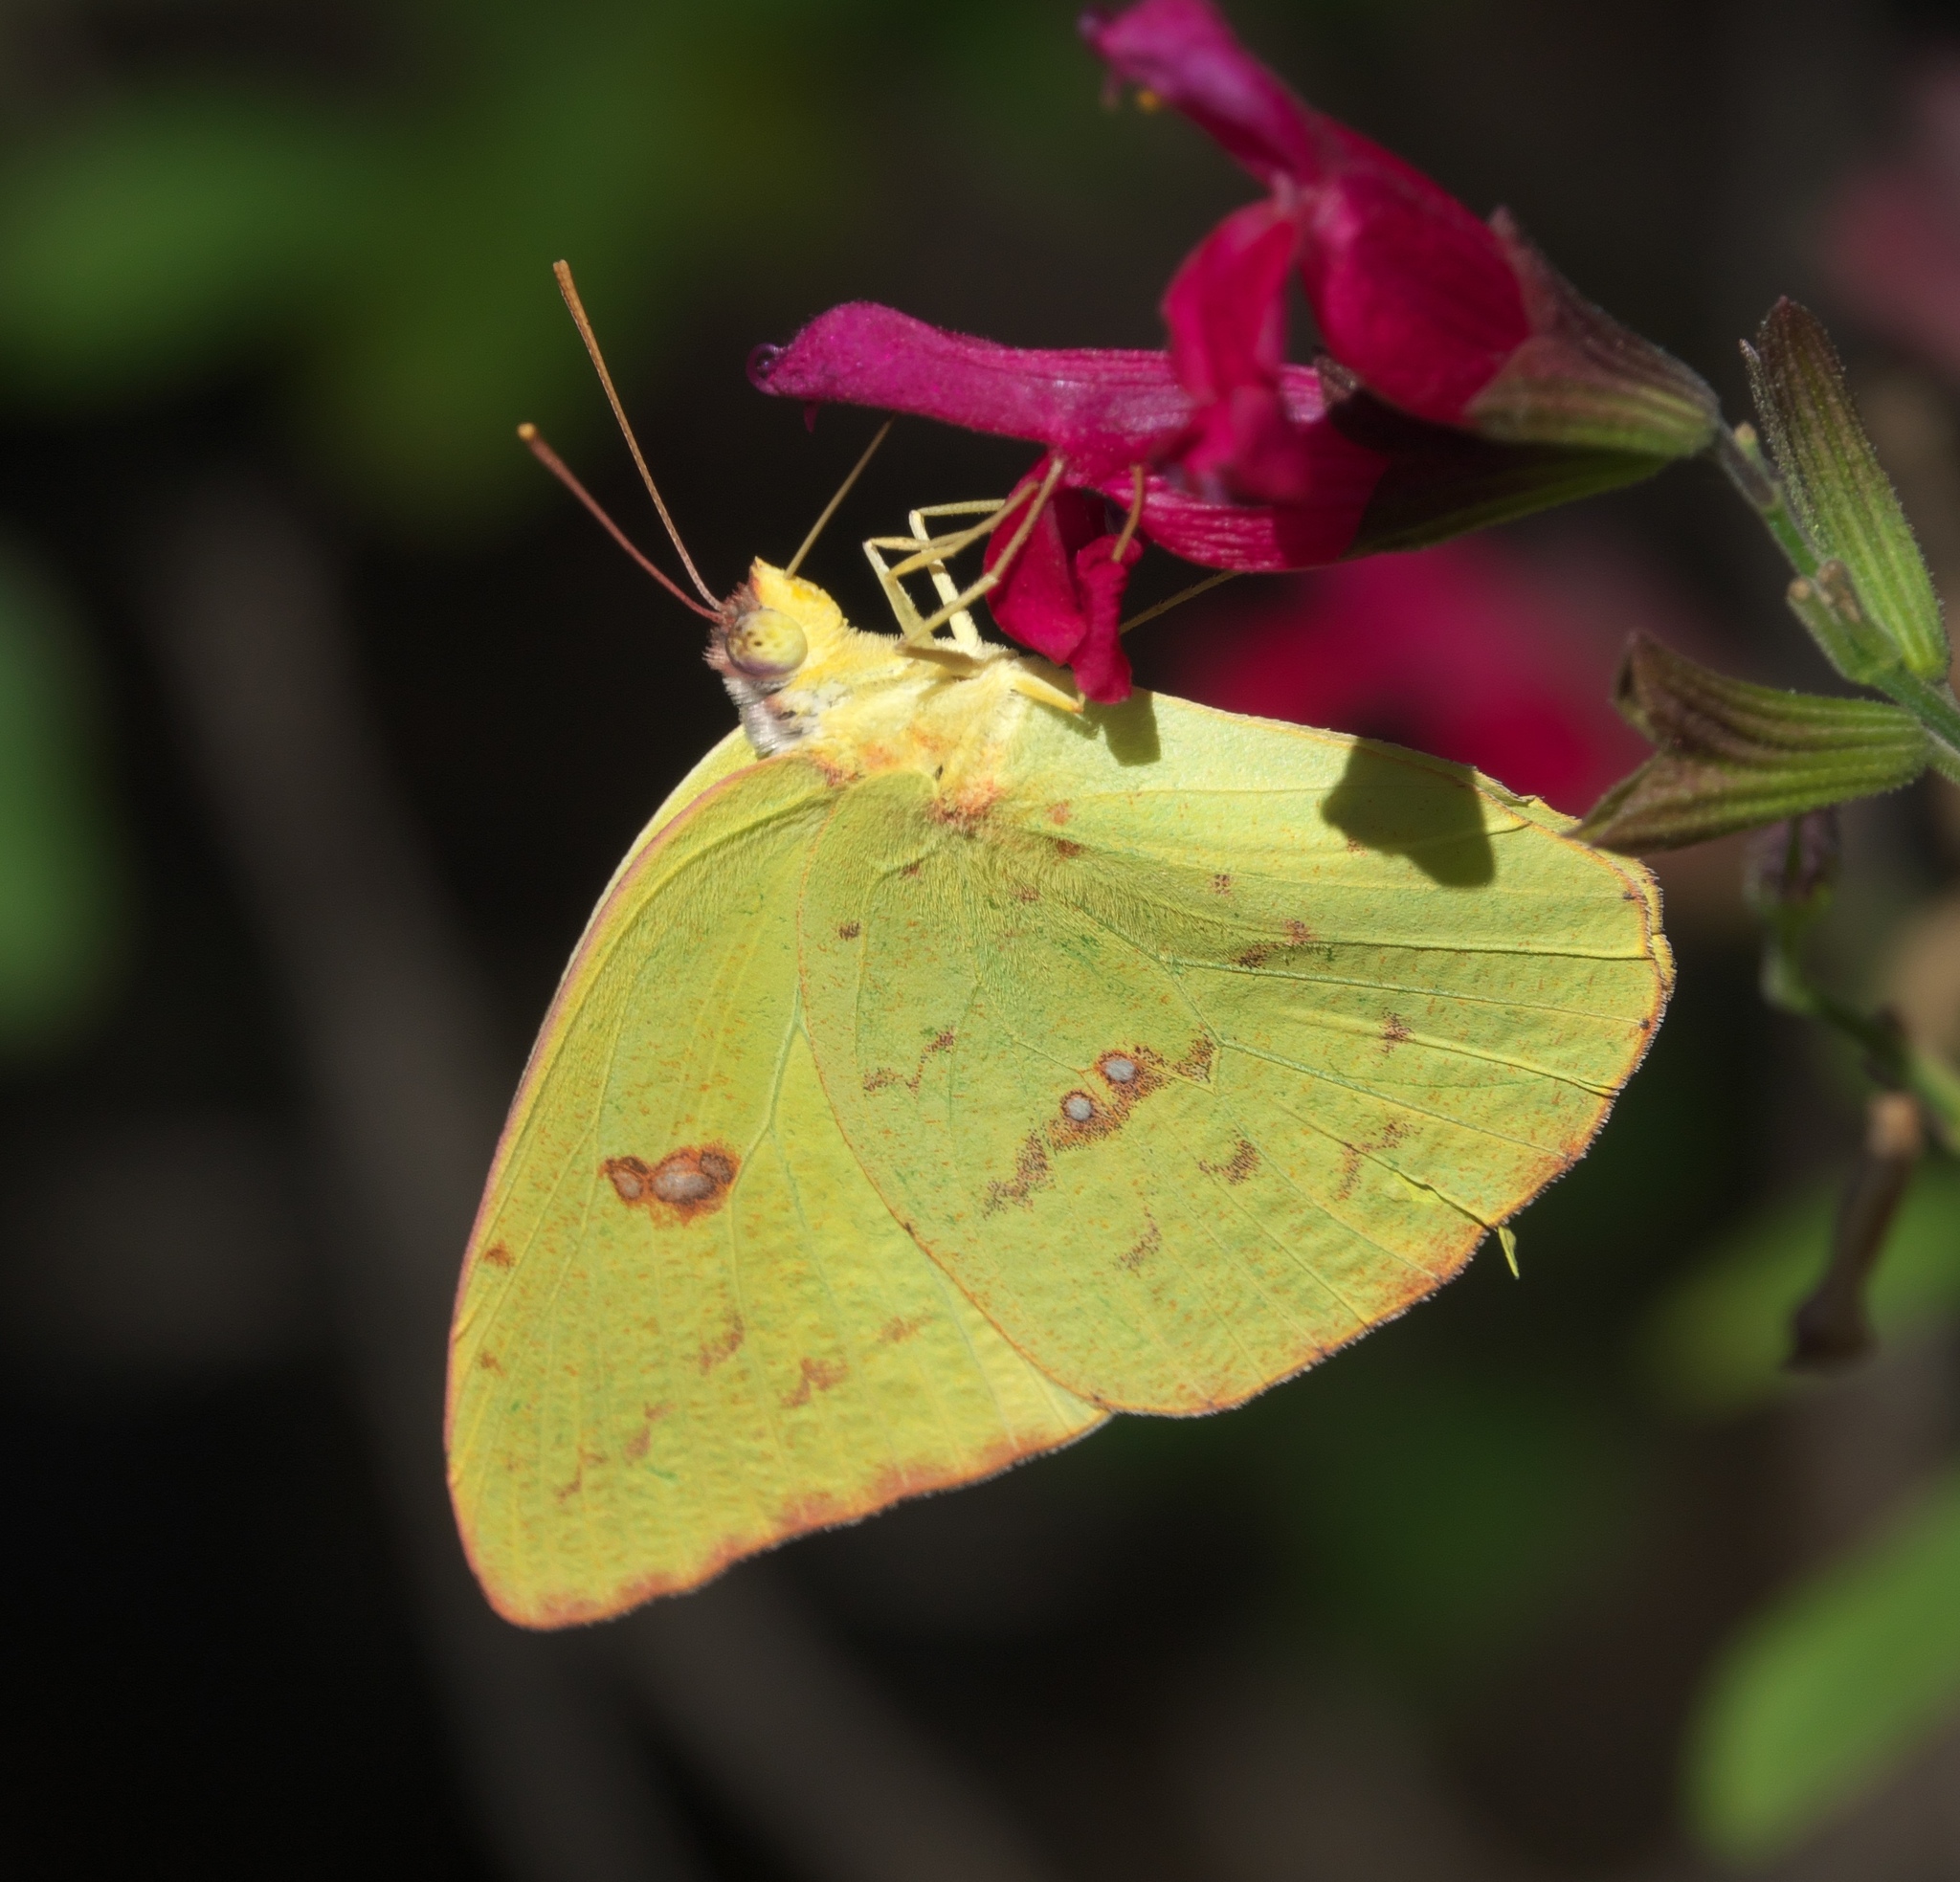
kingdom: Animalia
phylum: Arthropoda
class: Insecta
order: Lepidoptera
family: Pieridae
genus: Phoebis
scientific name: Phoebis sennae
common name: Cloudless sulphur
